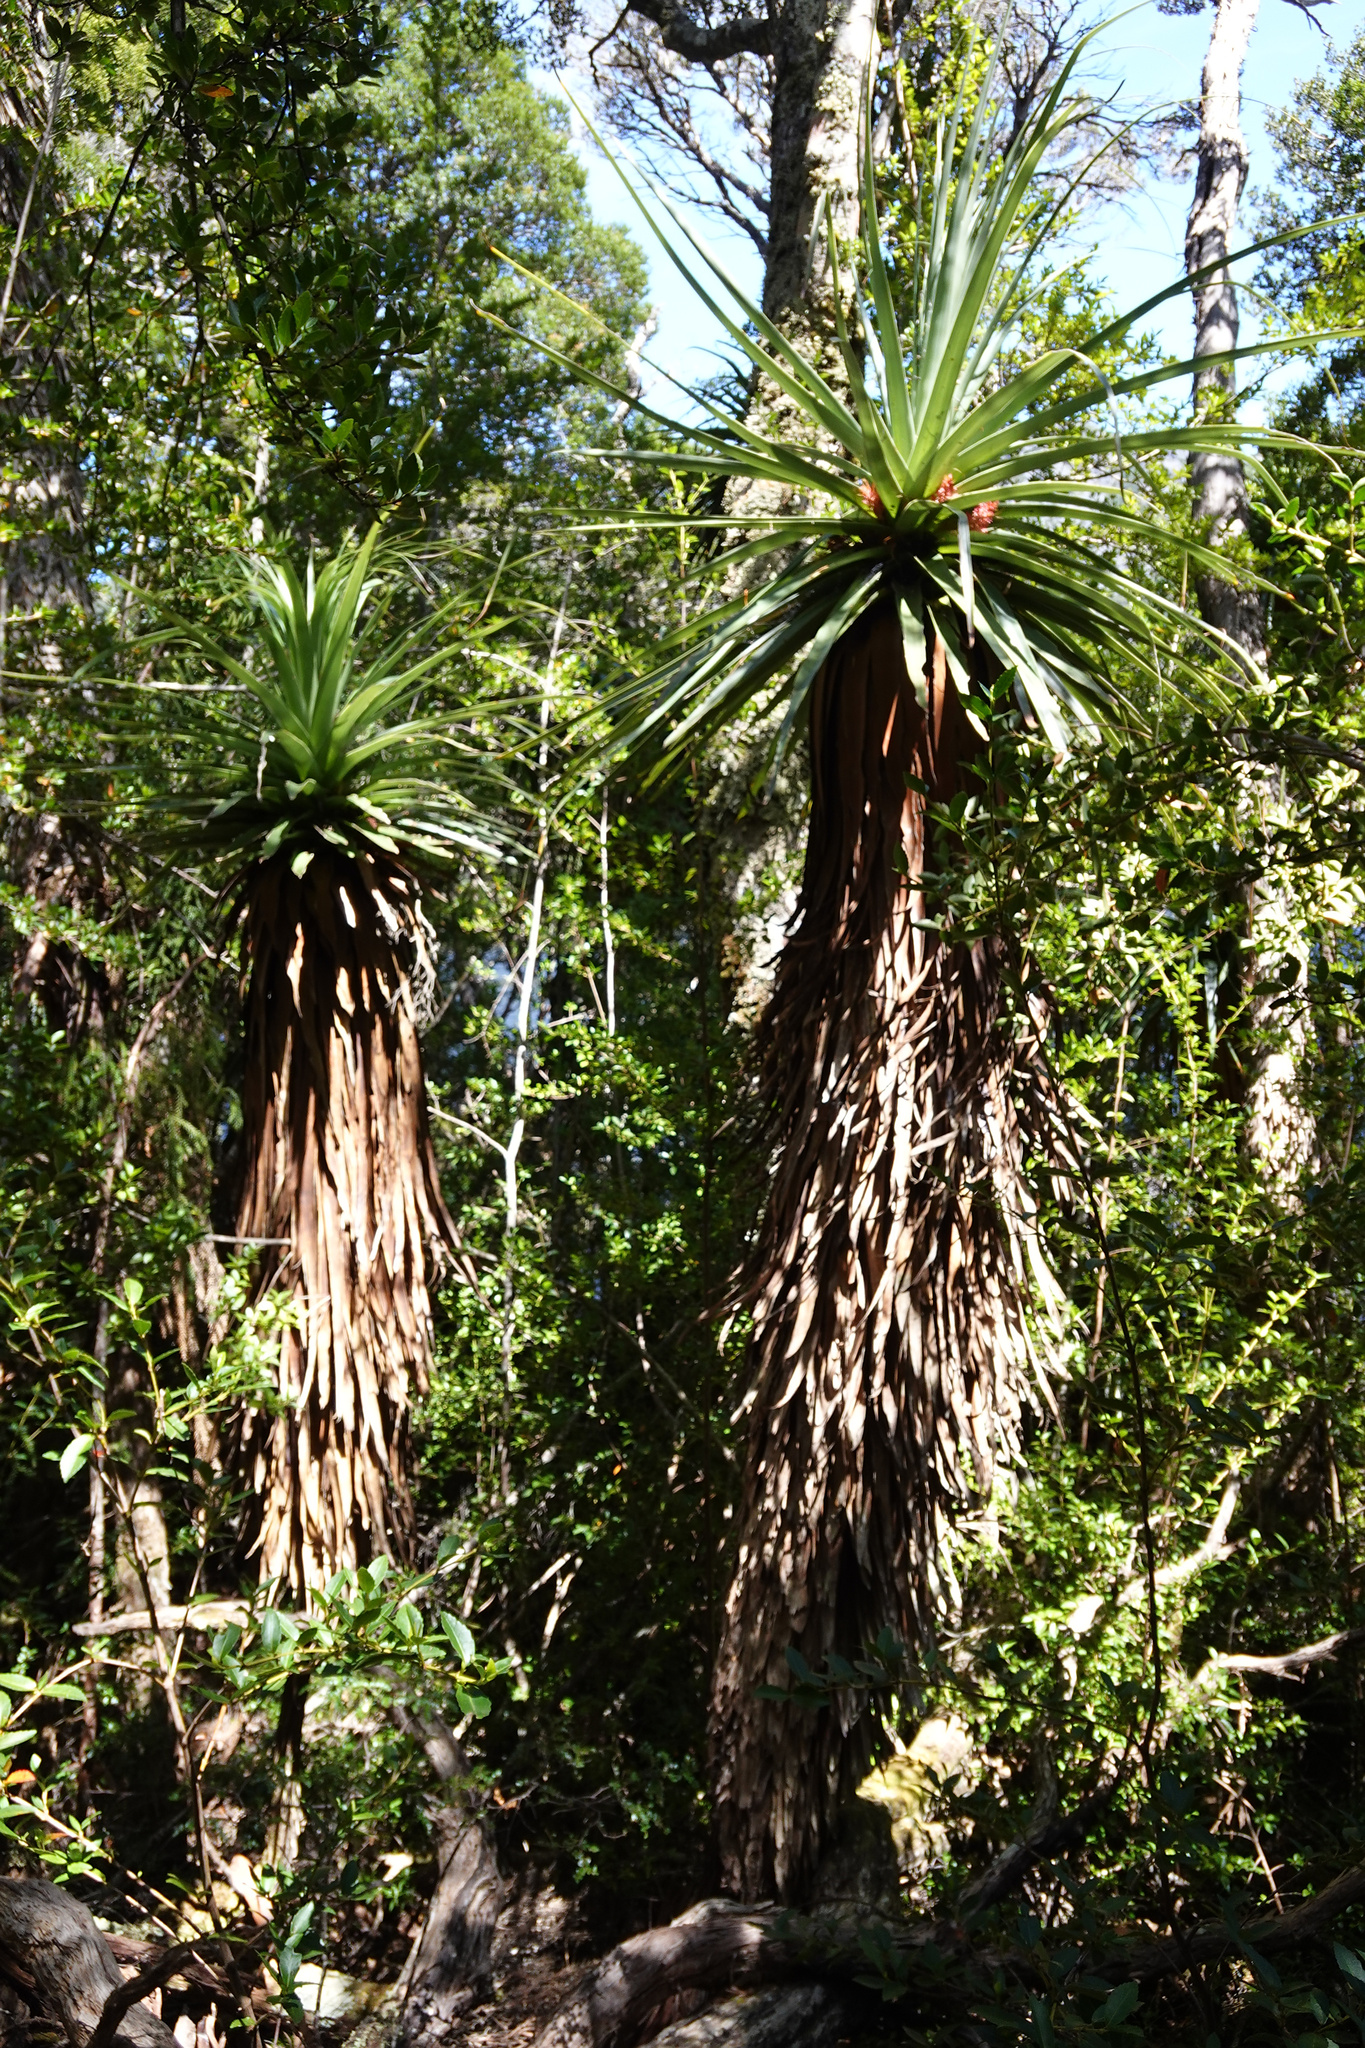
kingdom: Plantae
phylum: Tracheophyta
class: Magnoliopsida
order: Ericales
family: Ericaceae
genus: Dracophyllum
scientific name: Dracophyllum pandanifolium
